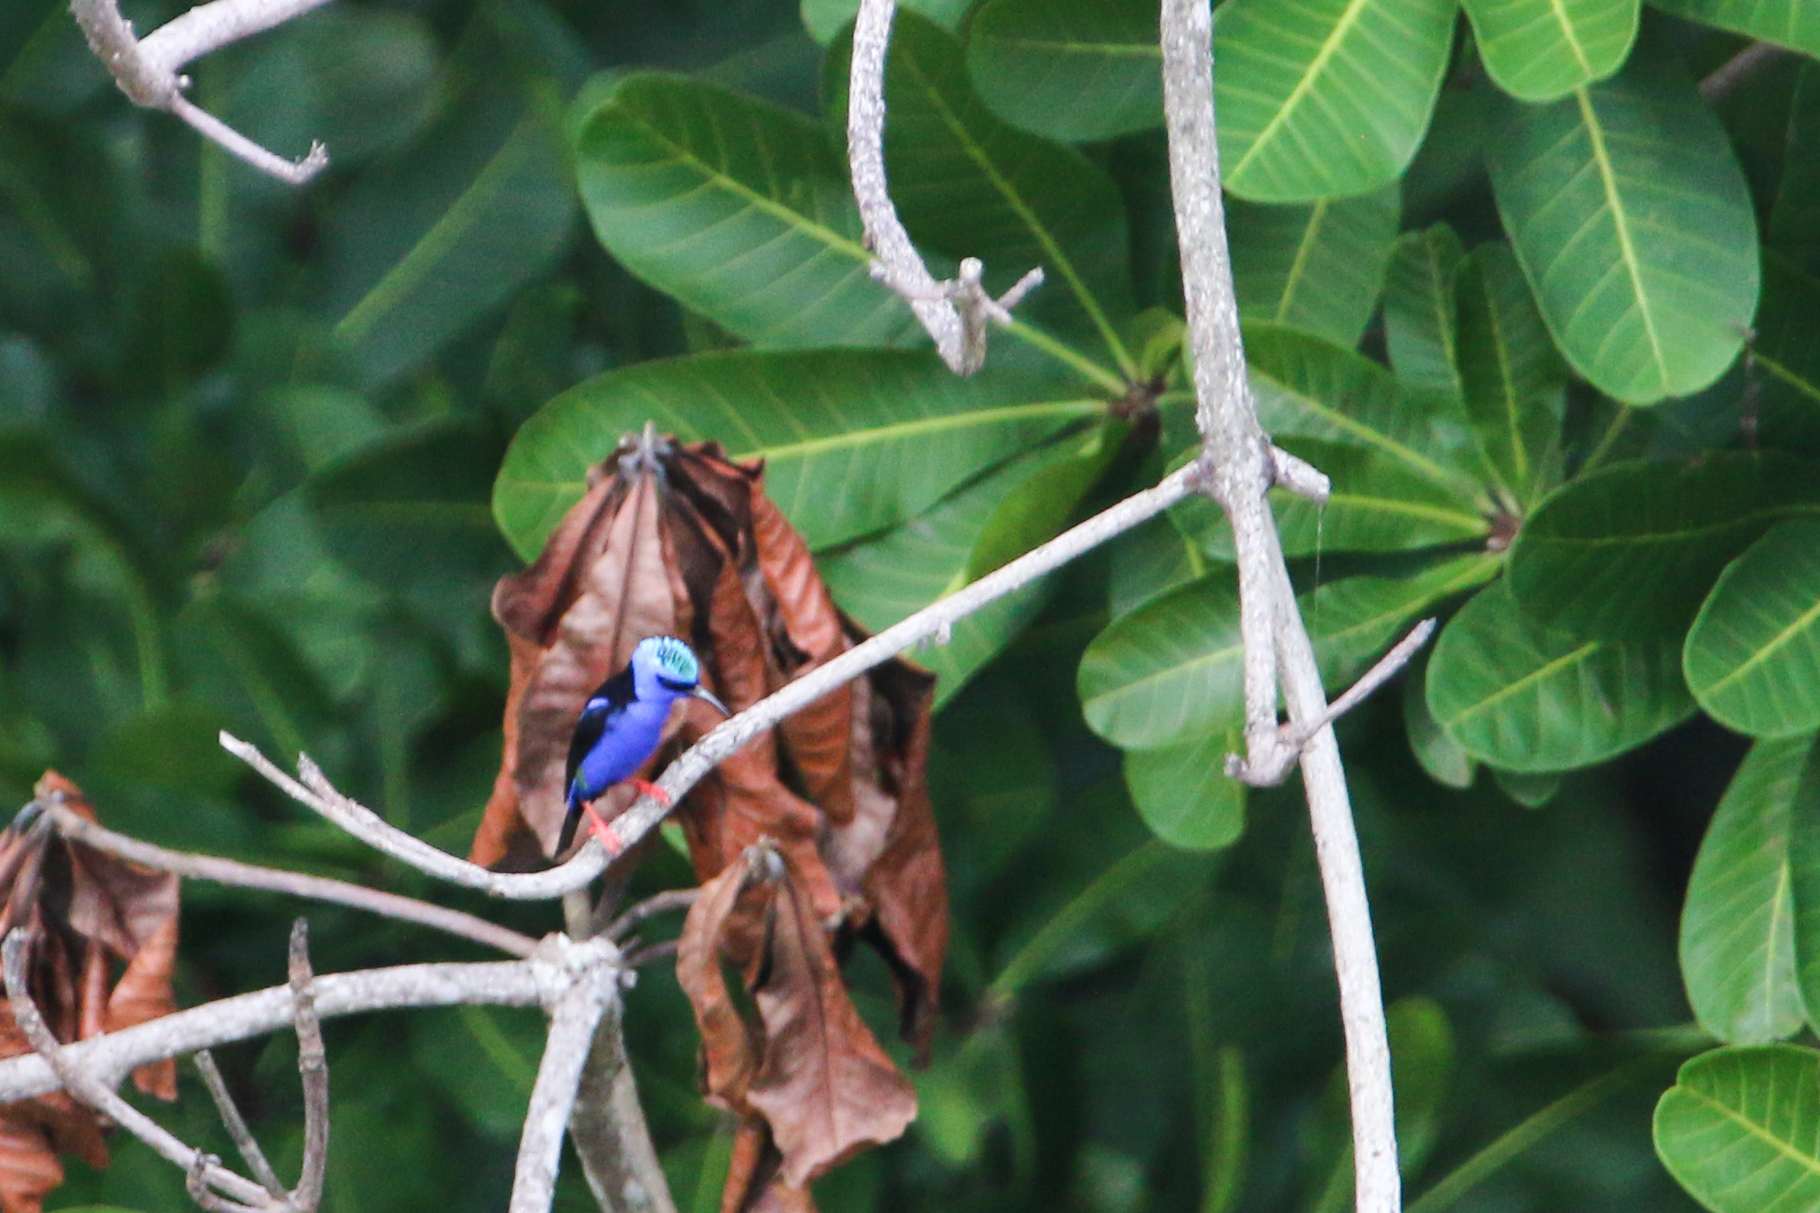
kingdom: Animalia
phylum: Chordata
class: Aves
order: Passeriformes
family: Thraupidae
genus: Cyanerpes
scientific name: Cyanerpes cyaneus
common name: Red-legged honeycreeper
